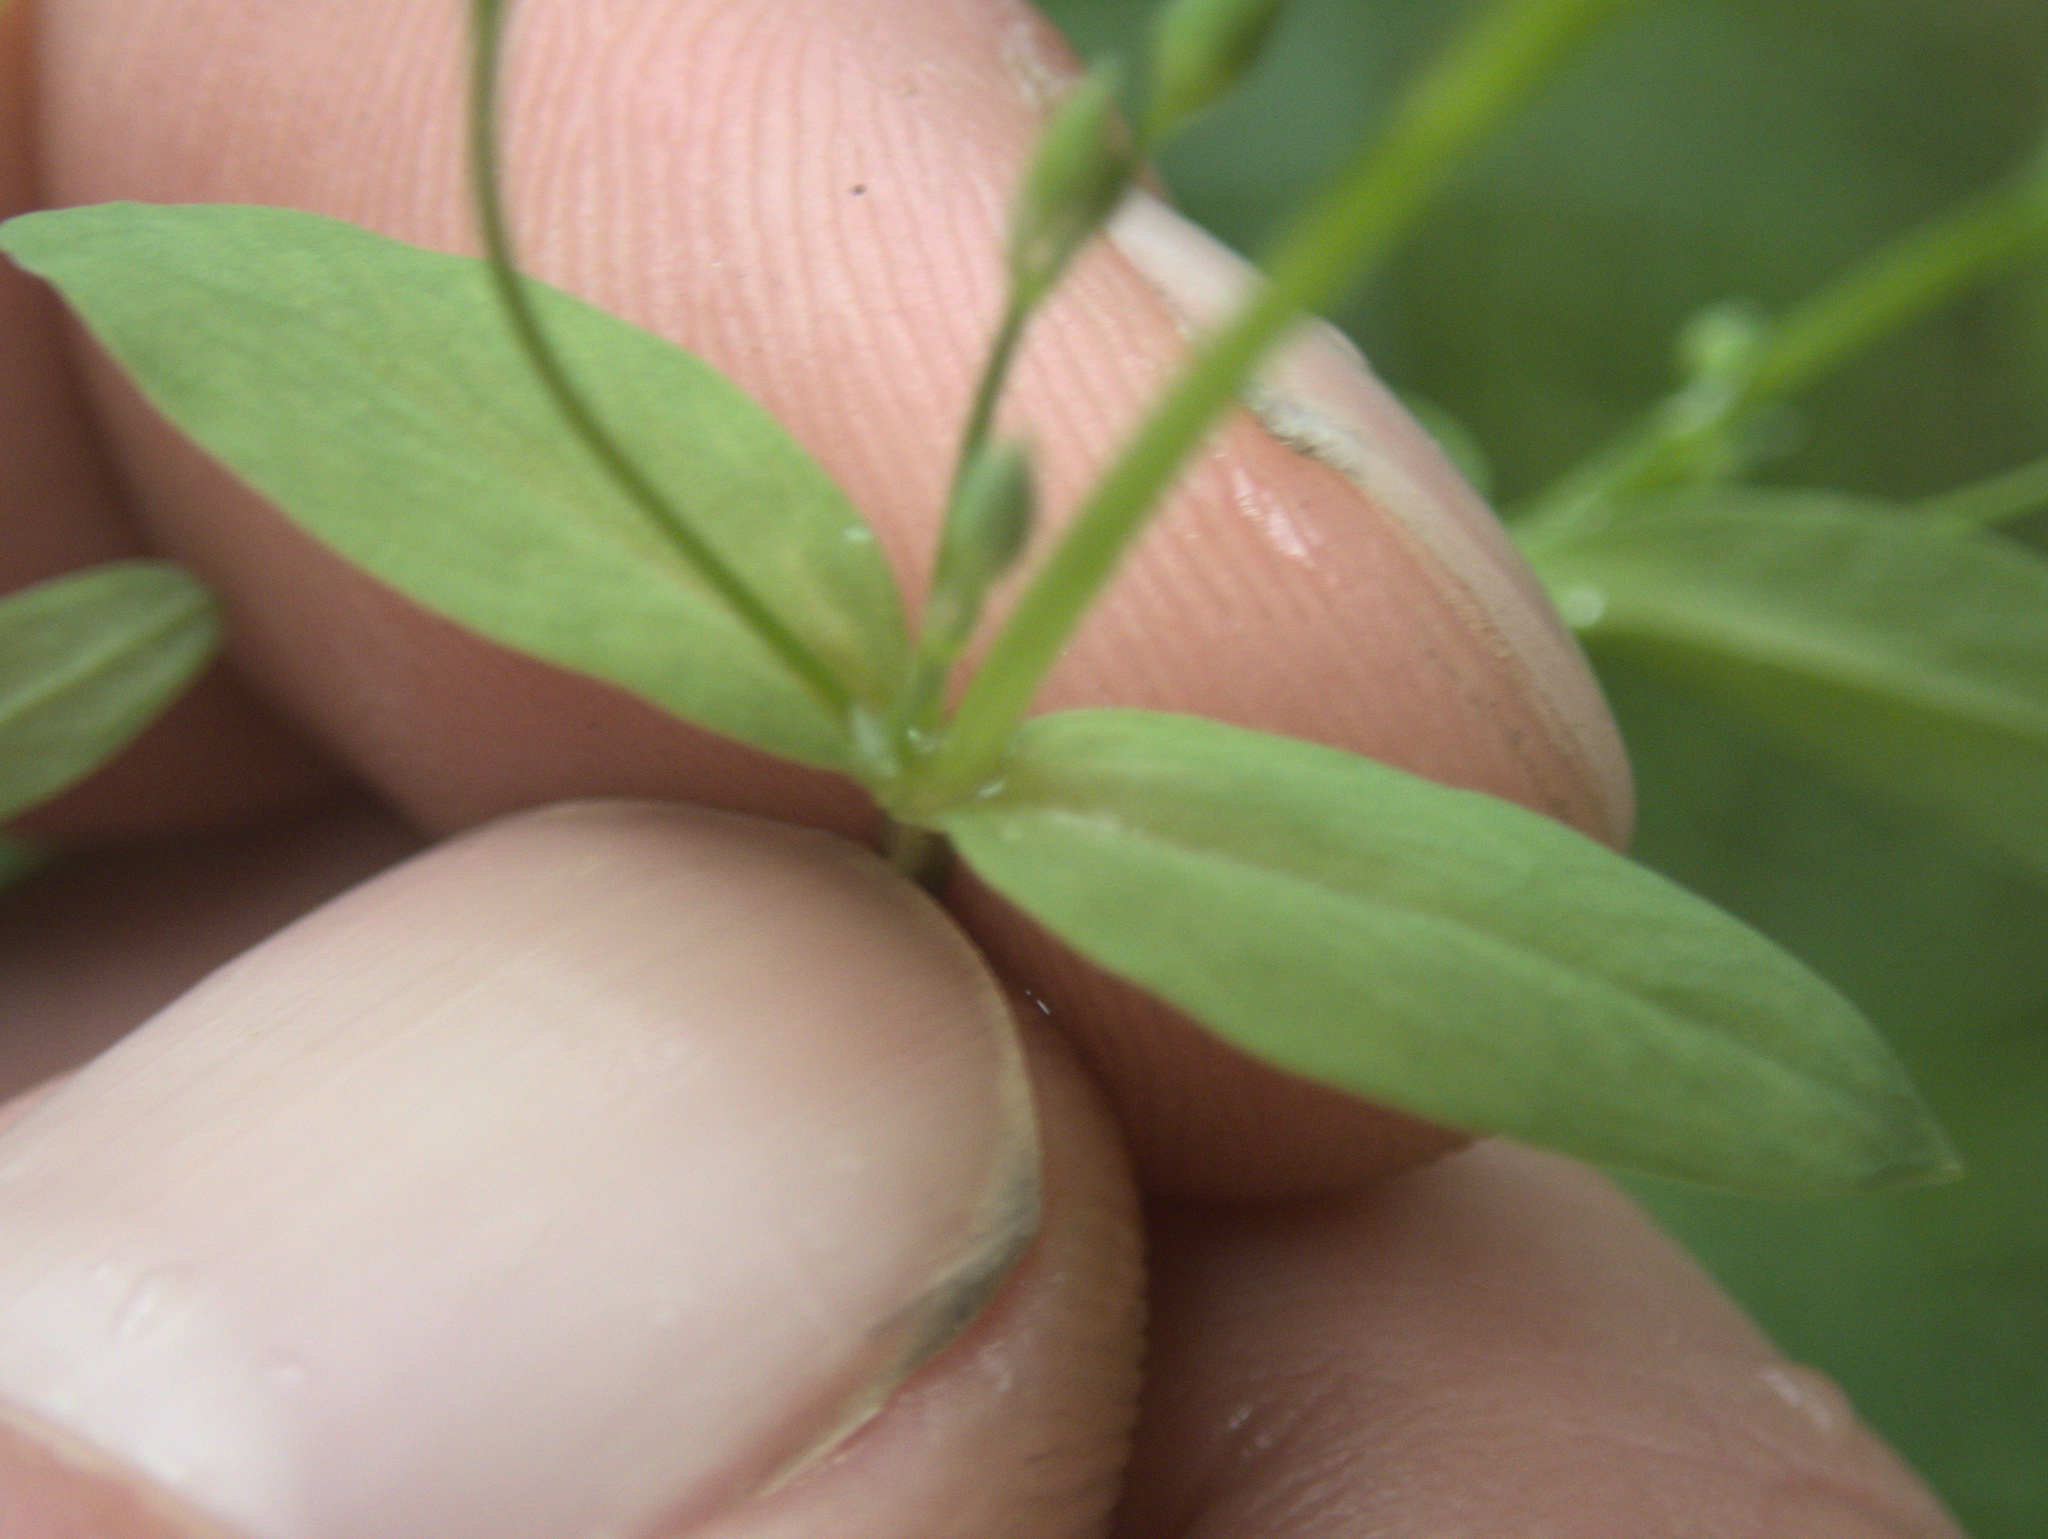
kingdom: Plantae
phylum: Tracheophyta
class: Magnoliopsida
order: Caryophyllales
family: Caryophyllaceae
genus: Stellaria
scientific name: Stellaria alsine
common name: Bog stitchwort
